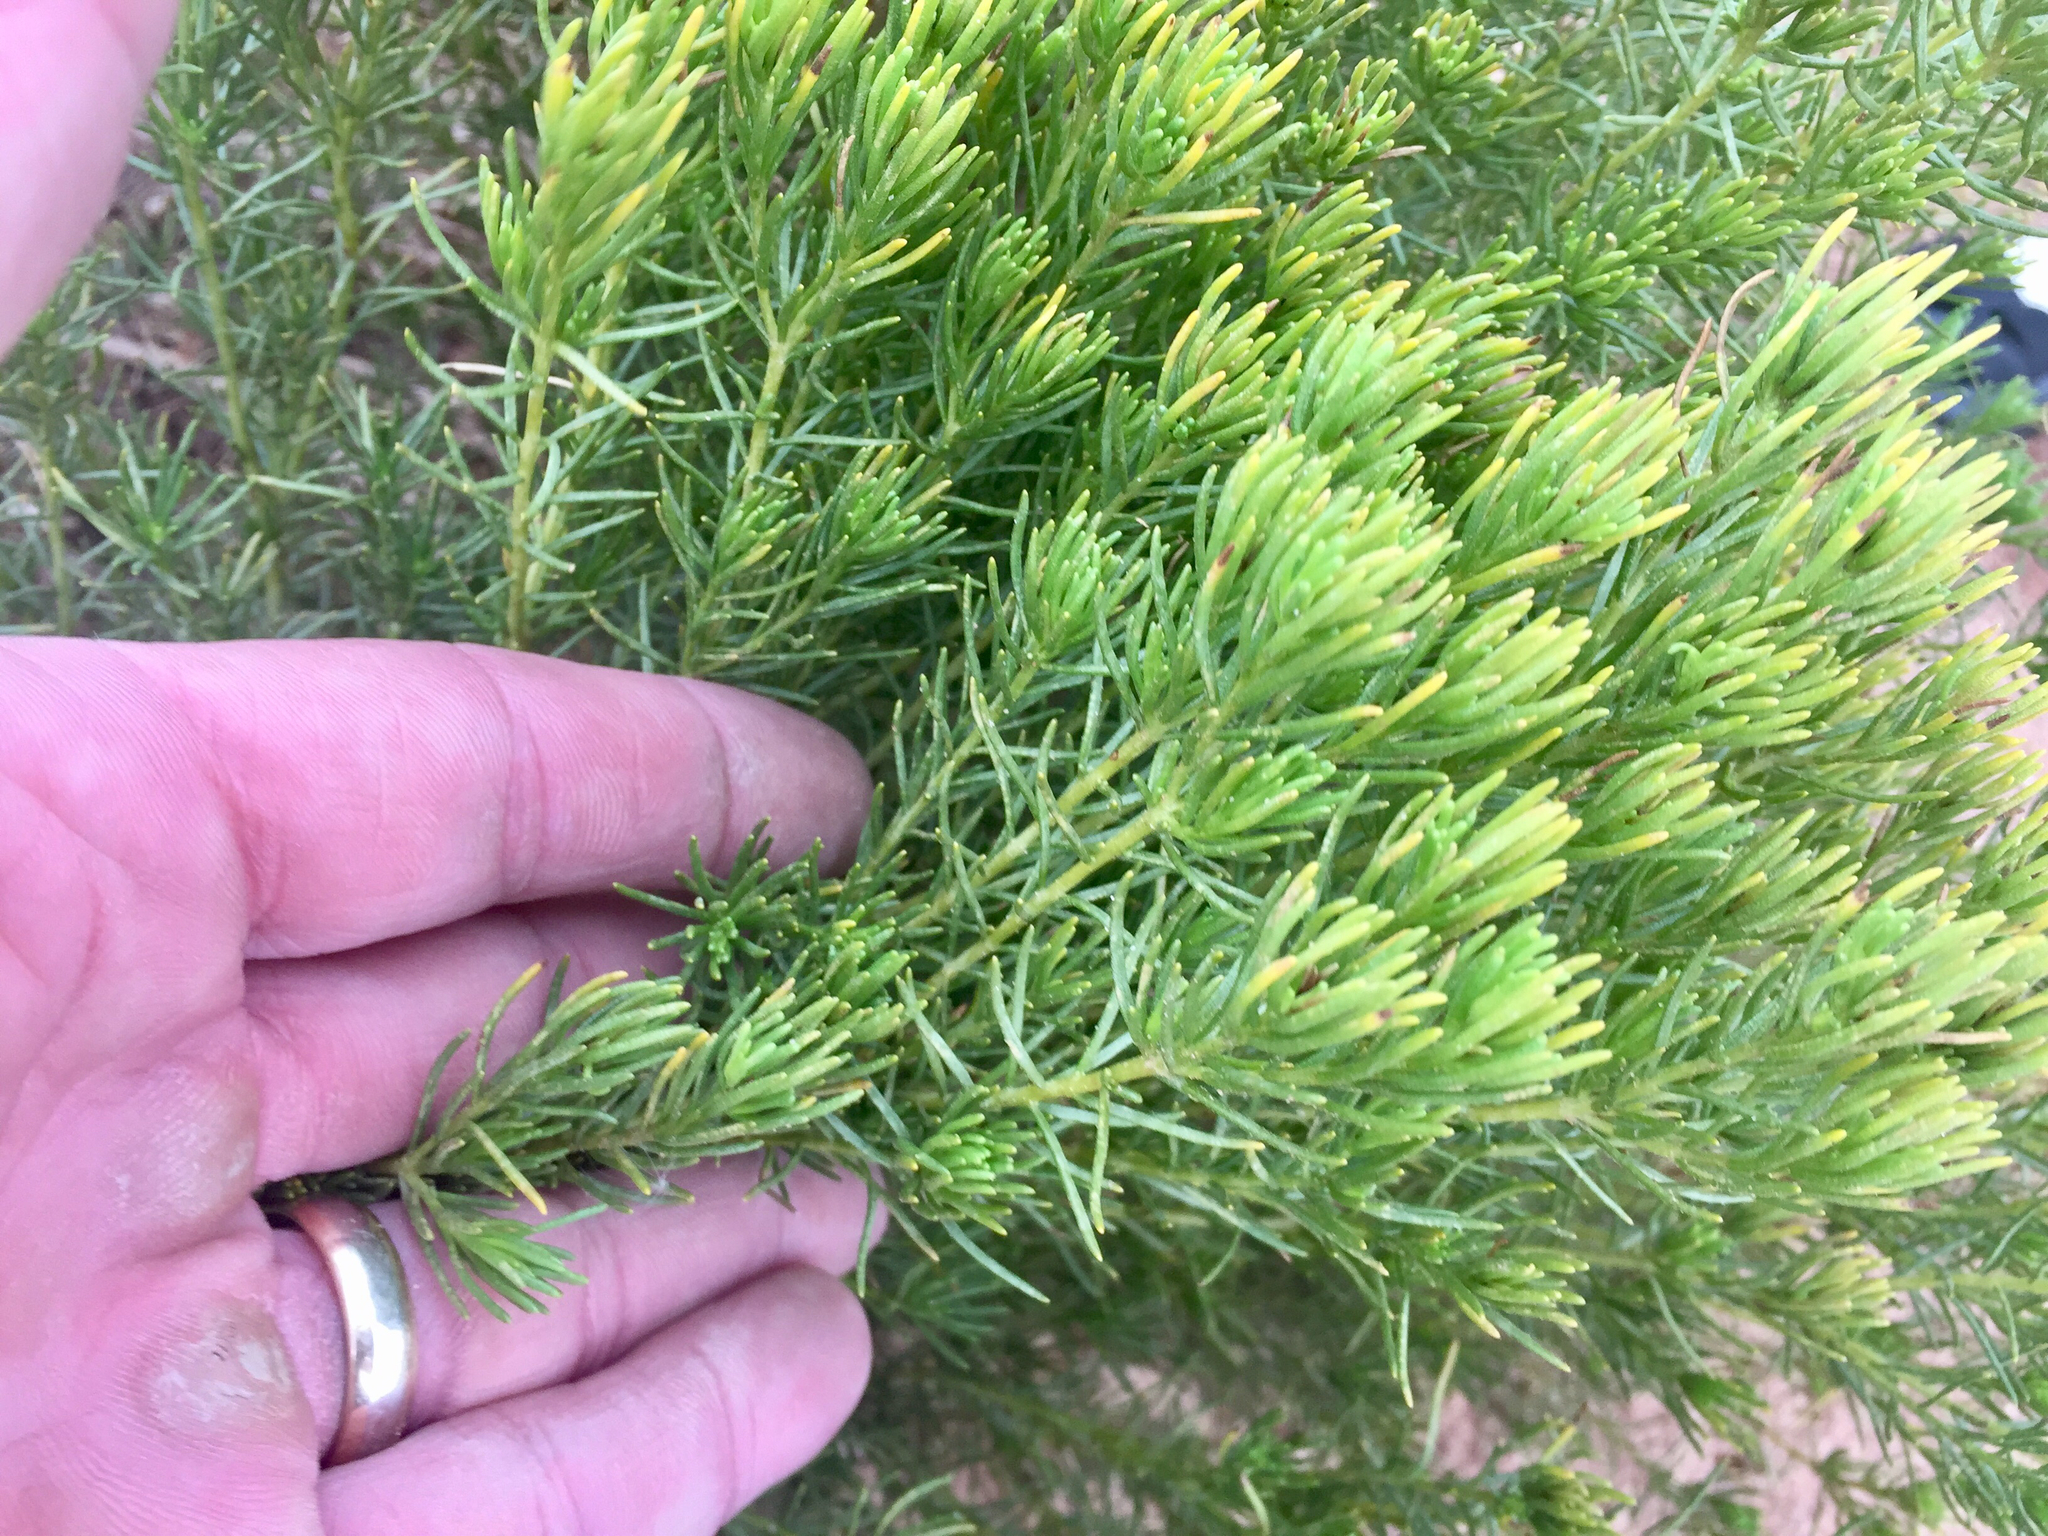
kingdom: Plantae
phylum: Tracheophyta
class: Magnoliopsida
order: Asterales
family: Asteraceae
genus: Peucephyllum
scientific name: Peucephyllum schottii
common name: Pygmy-cedar
